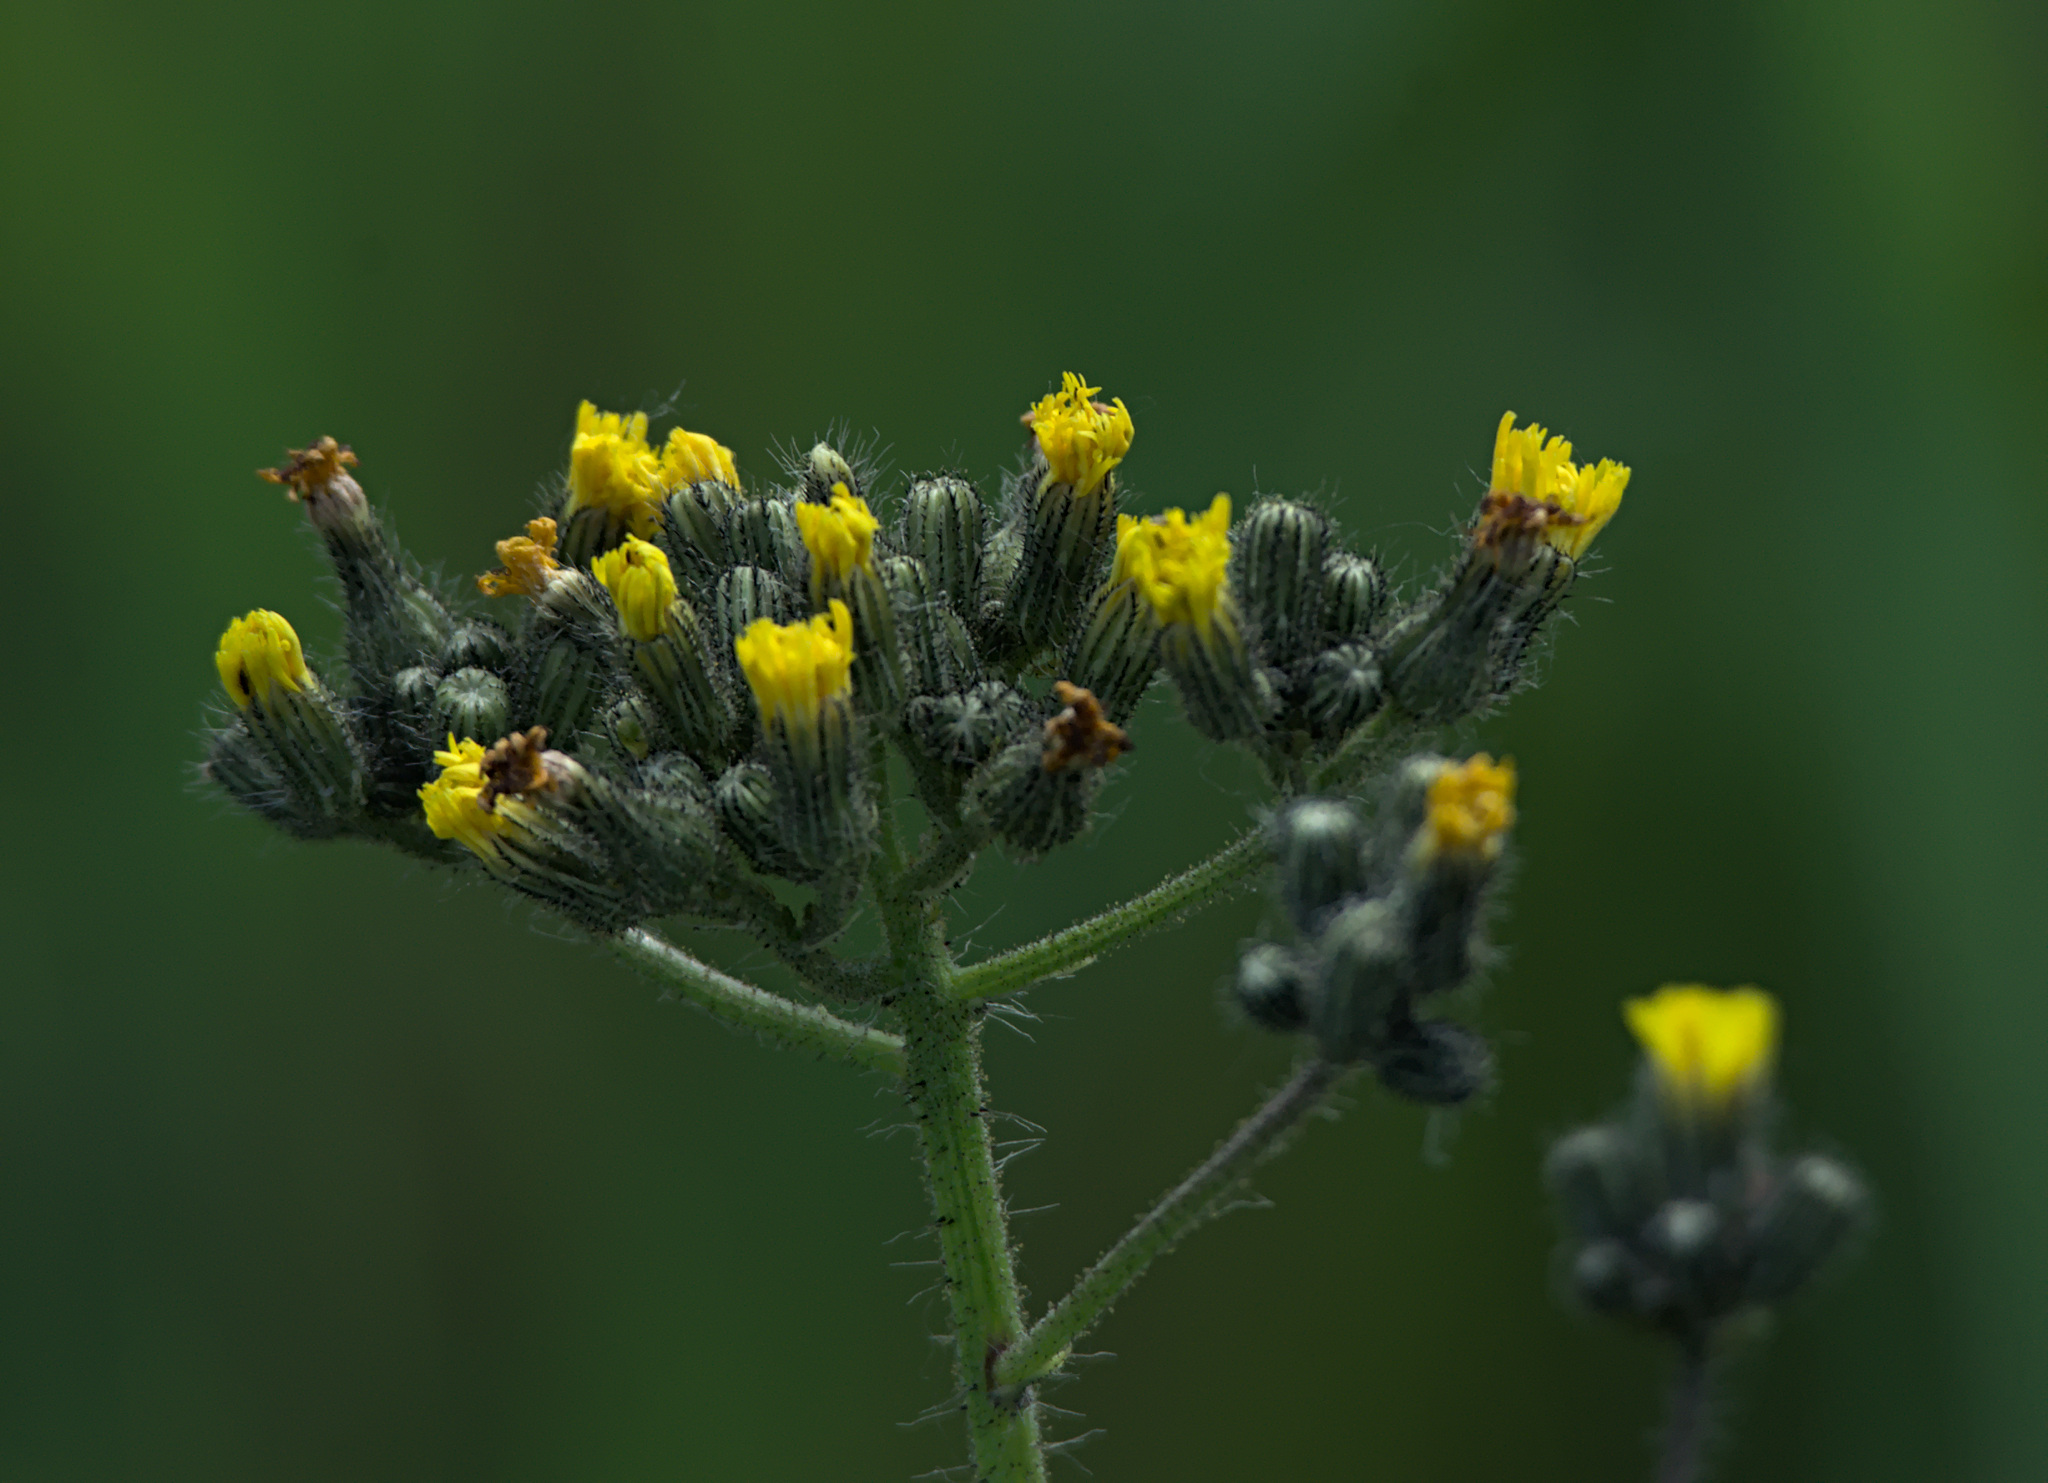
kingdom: Plantae
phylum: Tracheophyta
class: Magnoliopsida
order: Asterales
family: Asteraceae
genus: Pilosella
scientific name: Pilosella novosibirskensis
